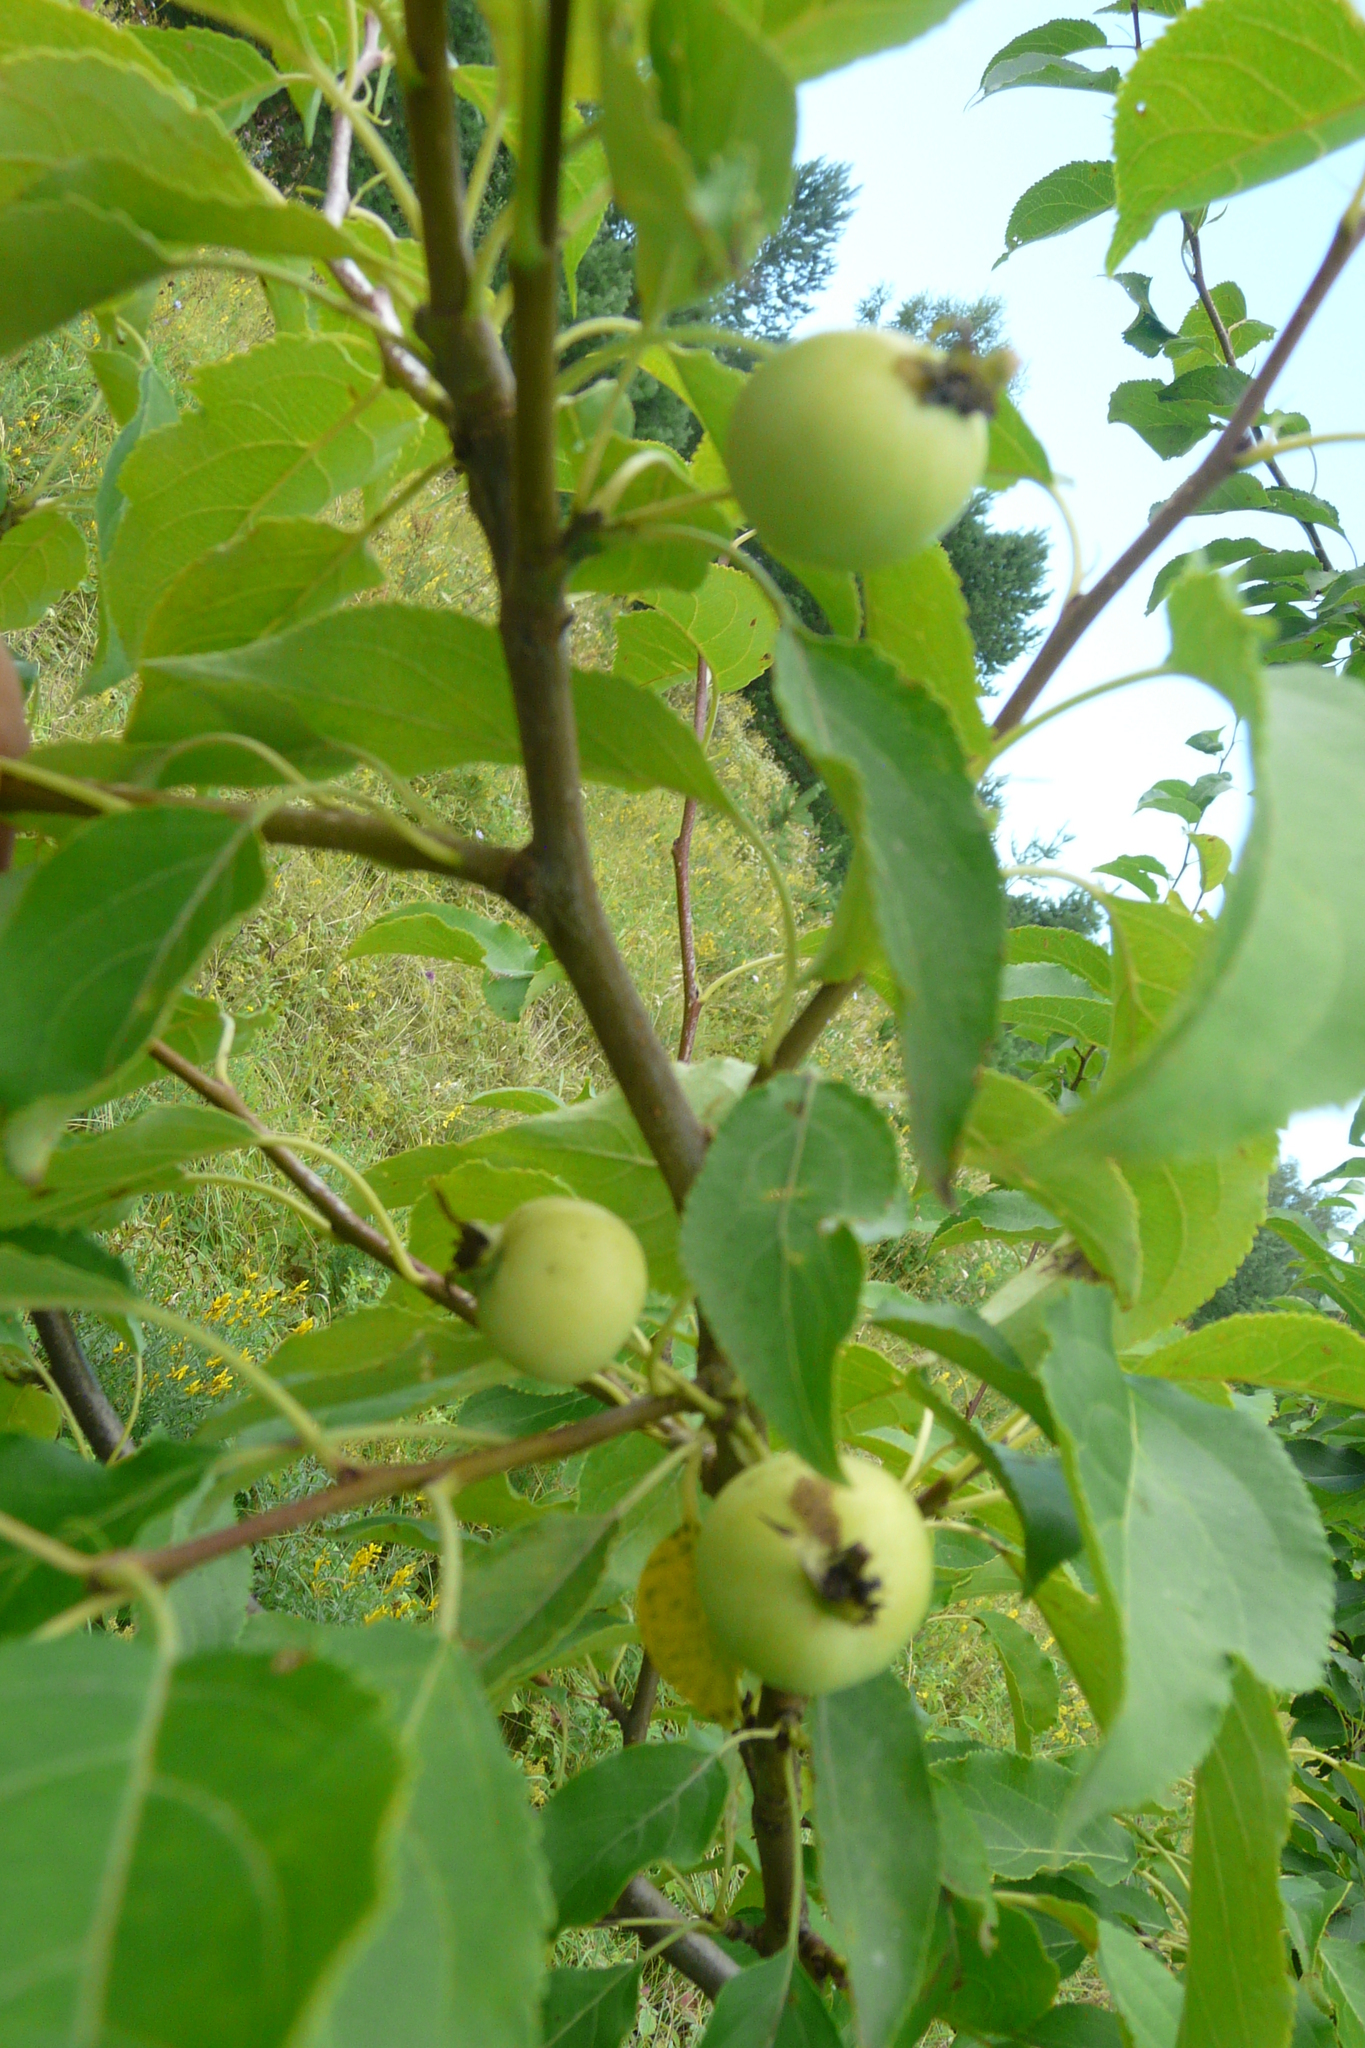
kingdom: Plantae
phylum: Tracheophyta
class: Magnoliopsida
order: Rosales
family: Rosaceae
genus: Malus
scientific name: Malus domestica
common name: Apple
